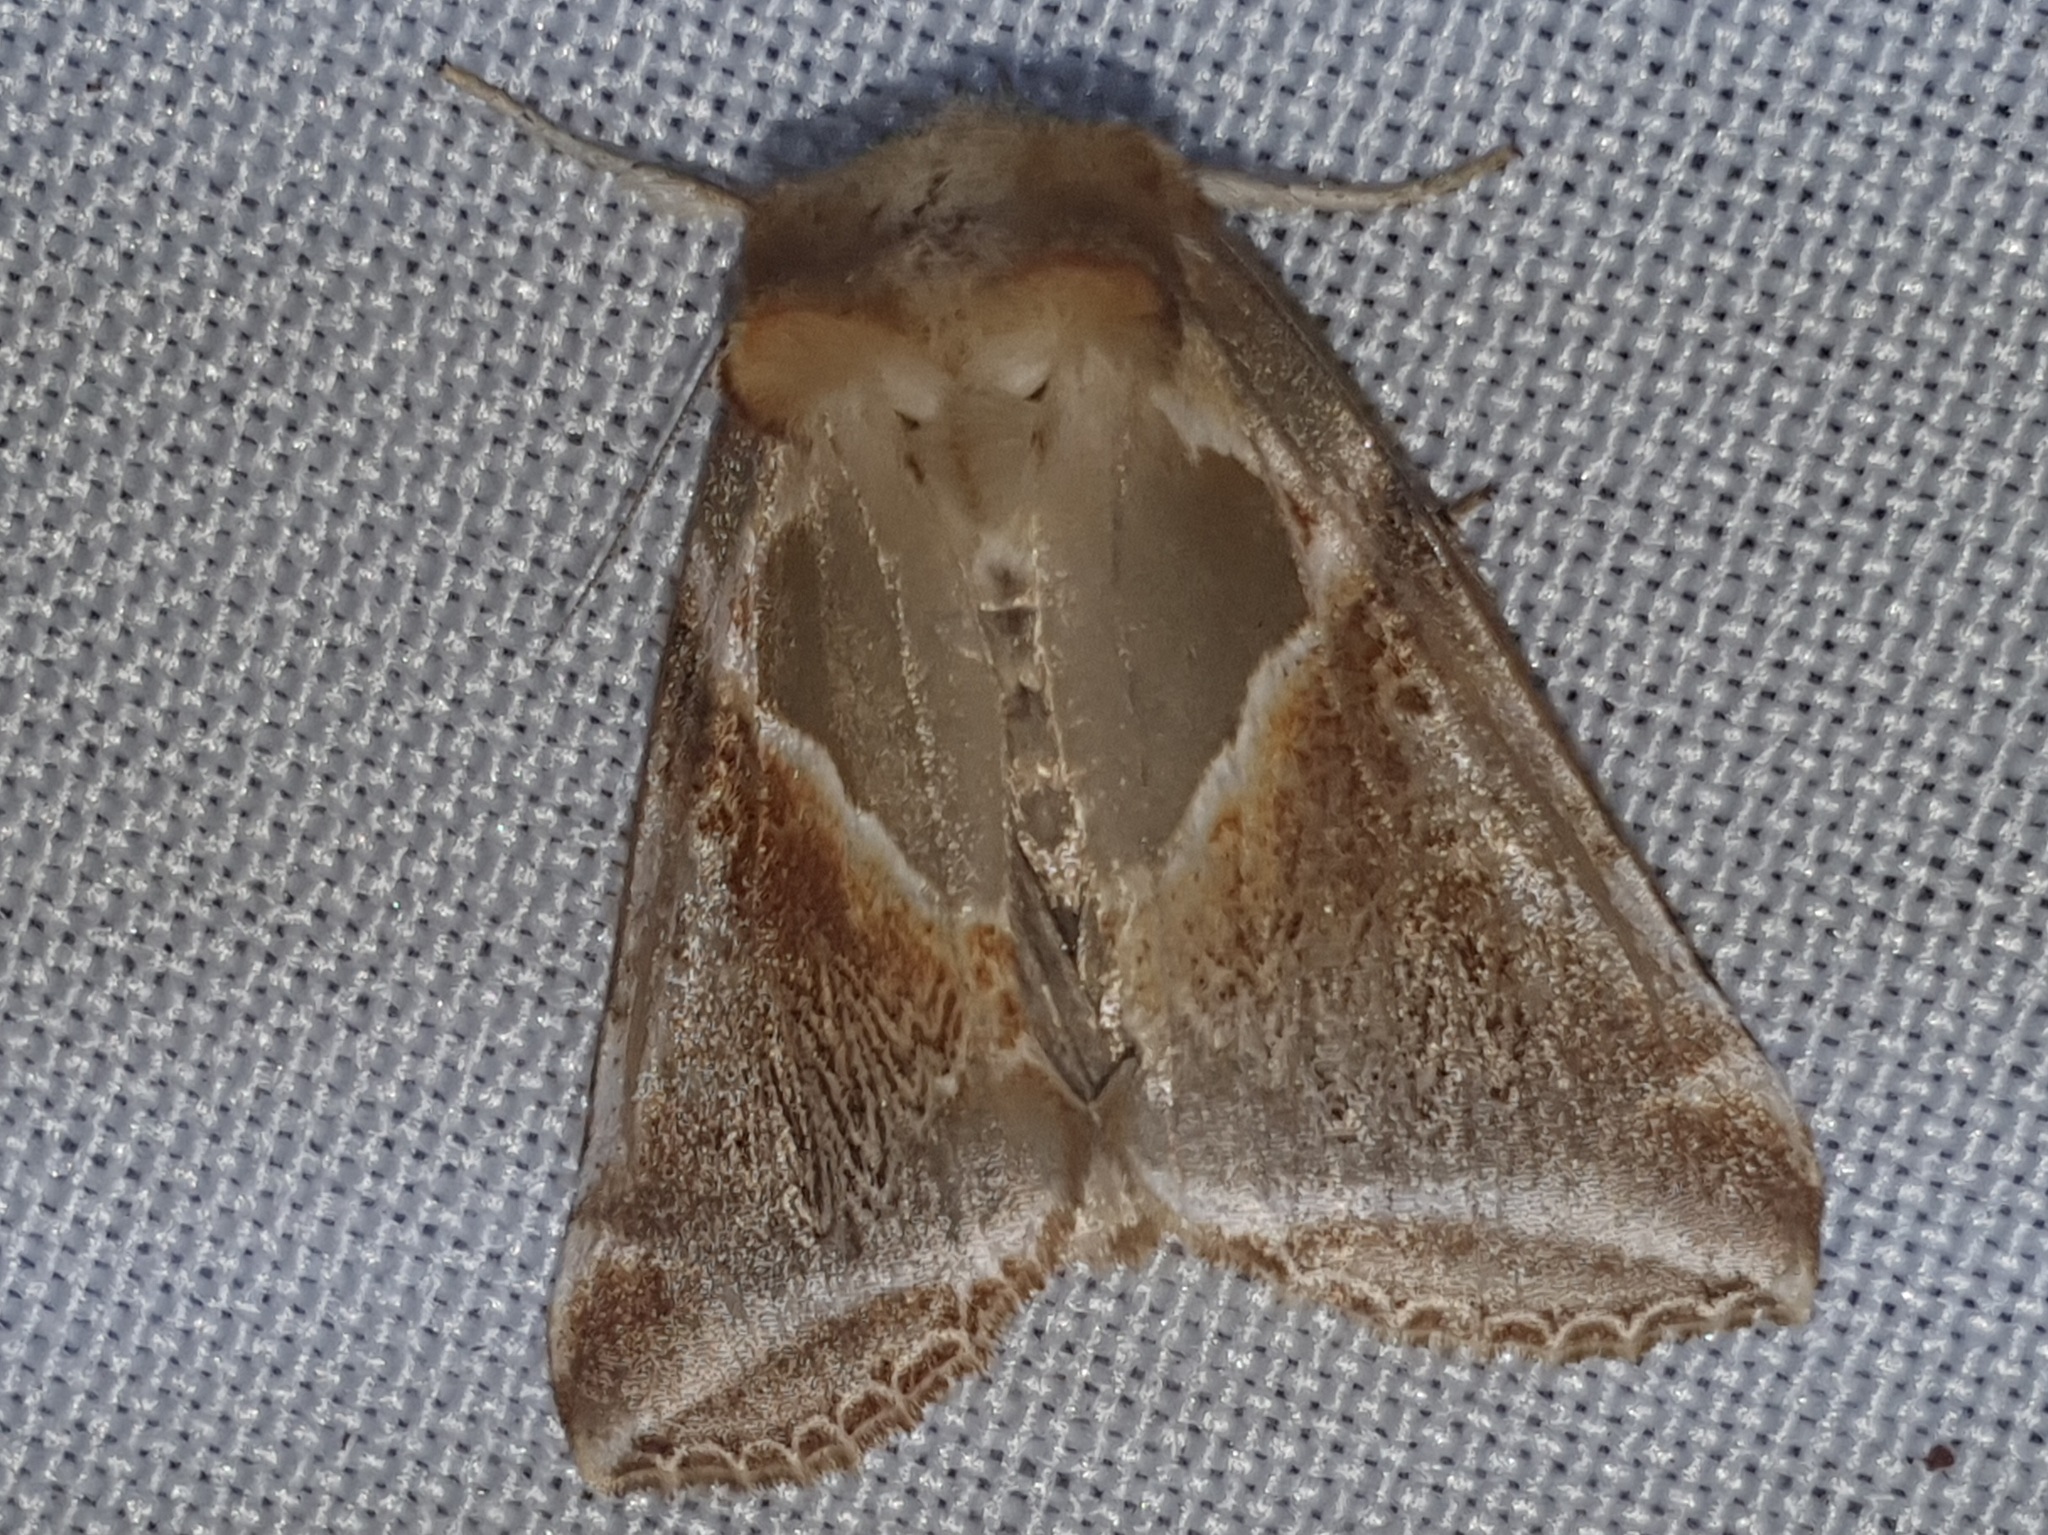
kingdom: Animalia
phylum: Arthropoda
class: Insecta
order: Lepidoptera
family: Drepanidae
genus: Habrosyne
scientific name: Habrosyne pyritoides
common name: Buff arches
